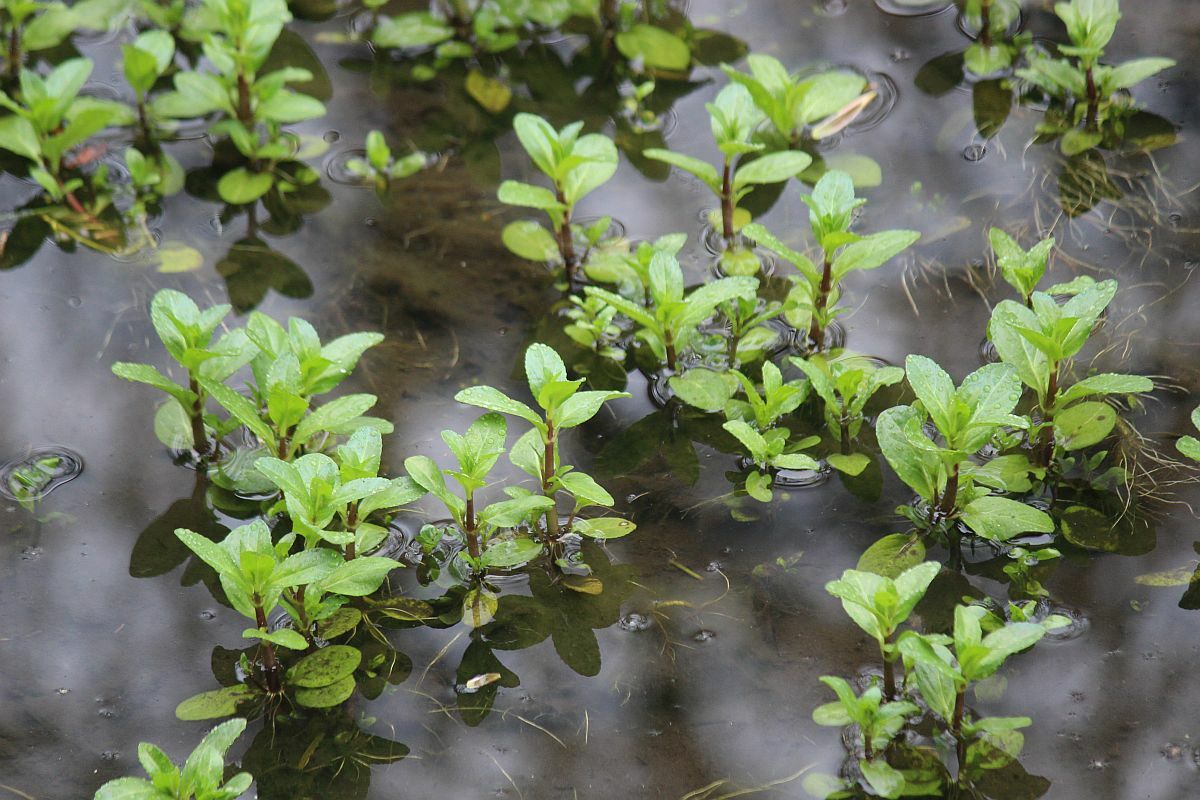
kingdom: Plantae
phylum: Tracheophyta
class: Magnoliopsida
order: Lamiales
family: Plantaginaceae
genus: Veronica
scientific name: Veronica beccabunga
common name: Brooklime
